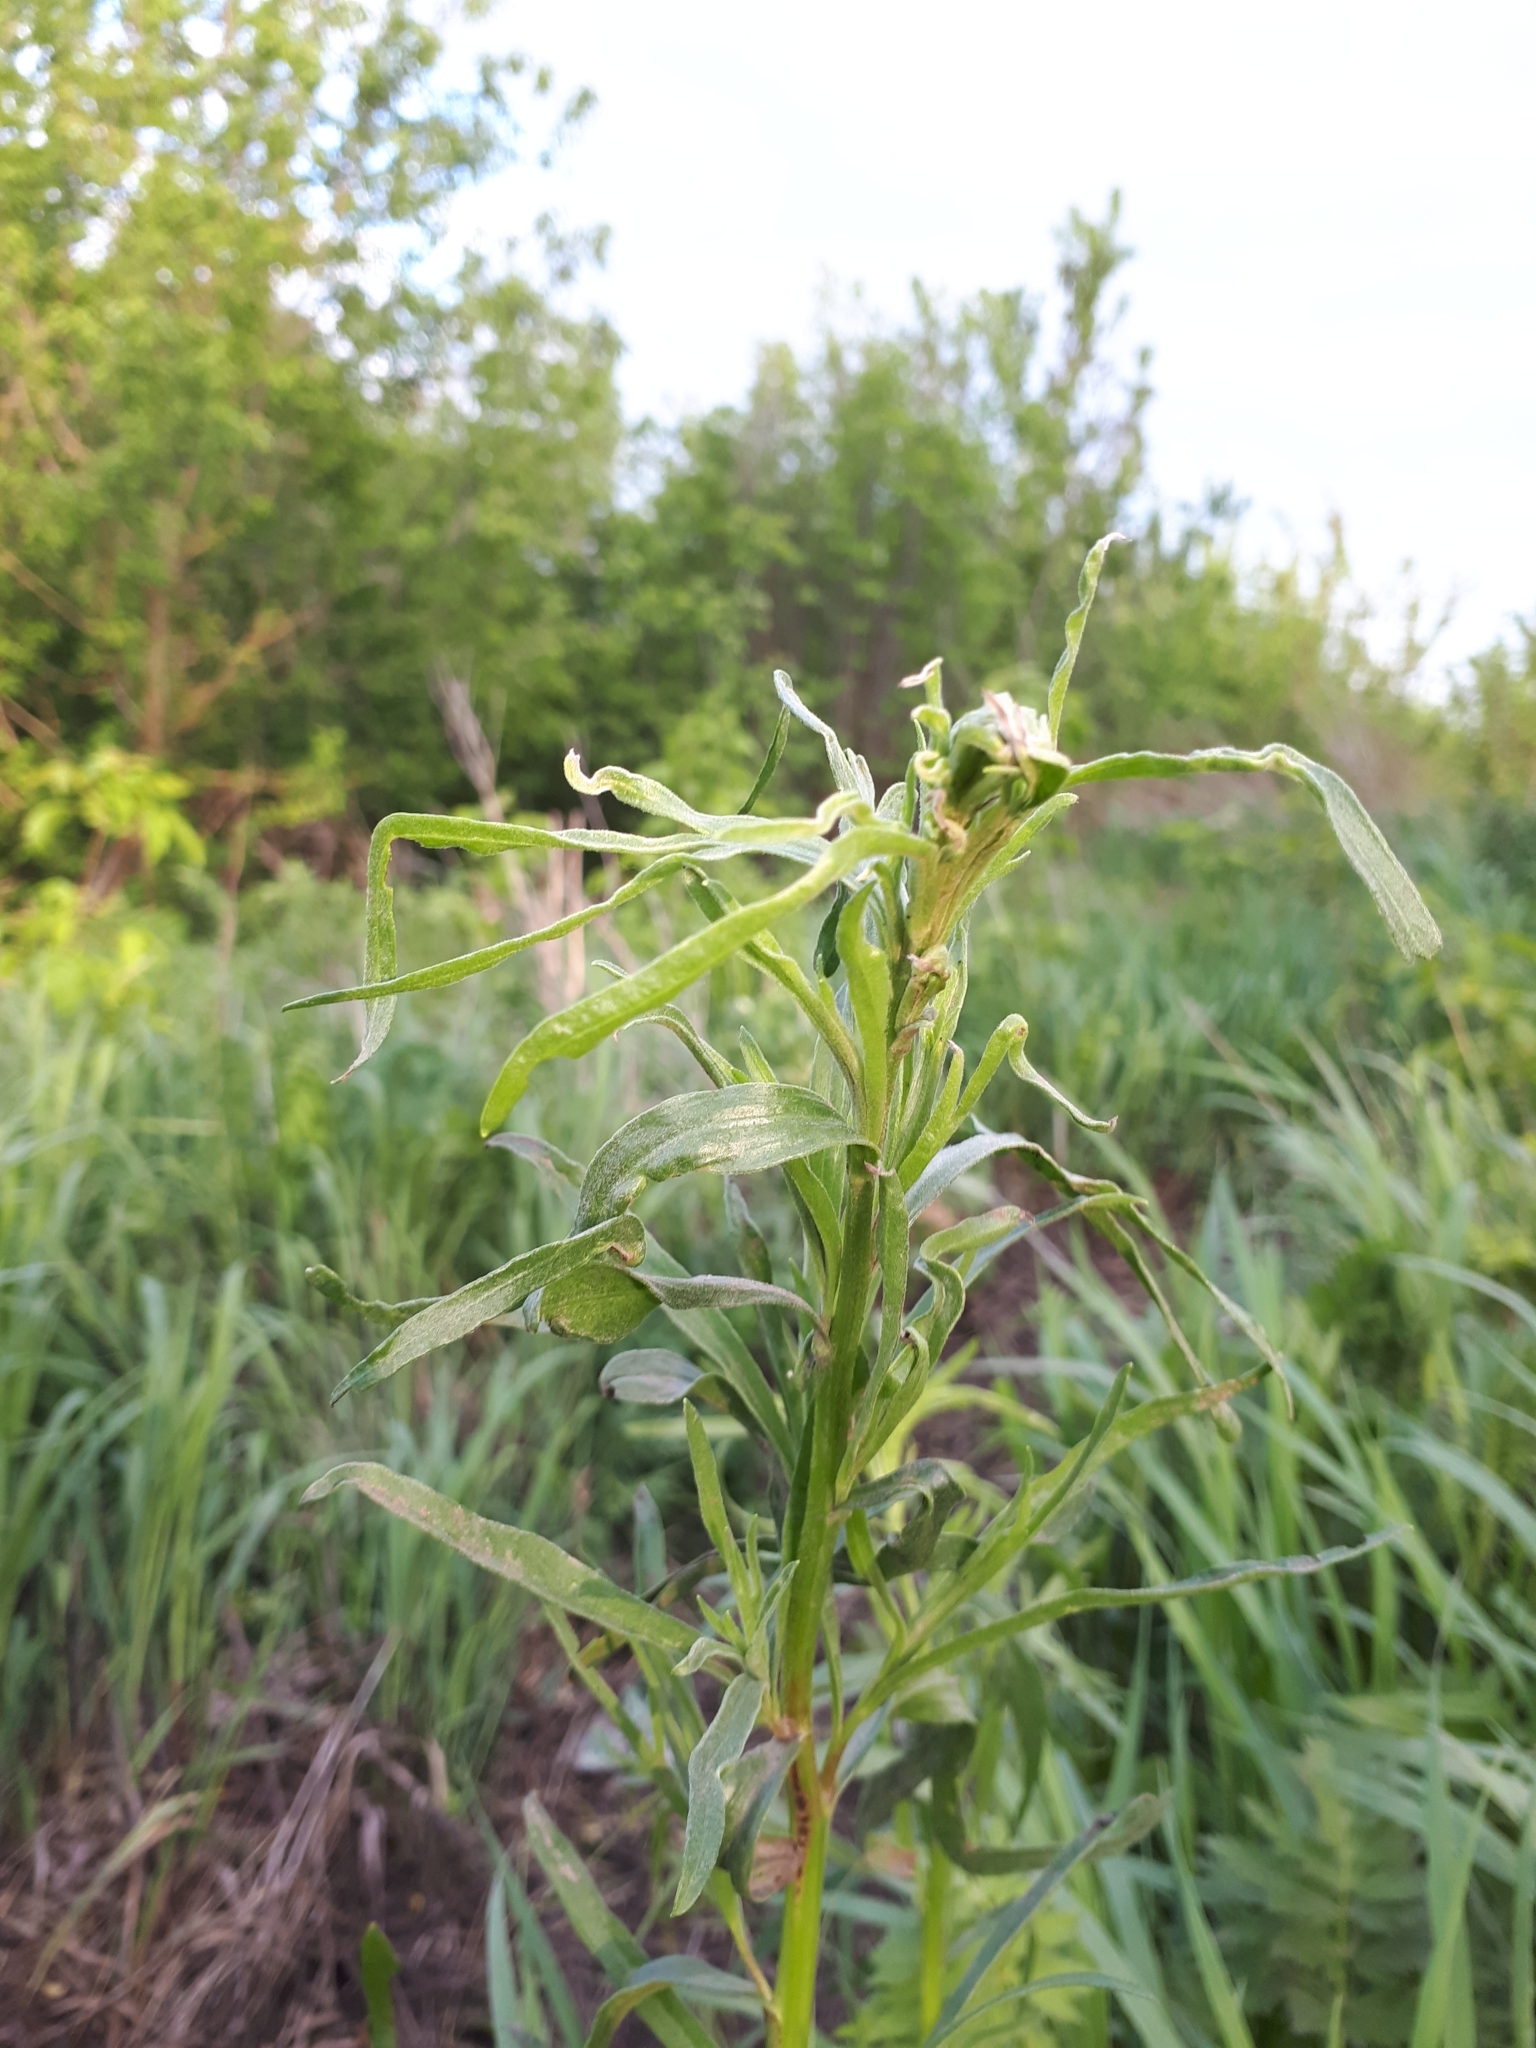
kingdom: Plantae
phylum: Tracheophyta
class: Magnoliopsida
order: Asterales
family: Asteraceae
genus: Artemisia
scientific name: Artemisia dracunculus
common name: Tarragon
